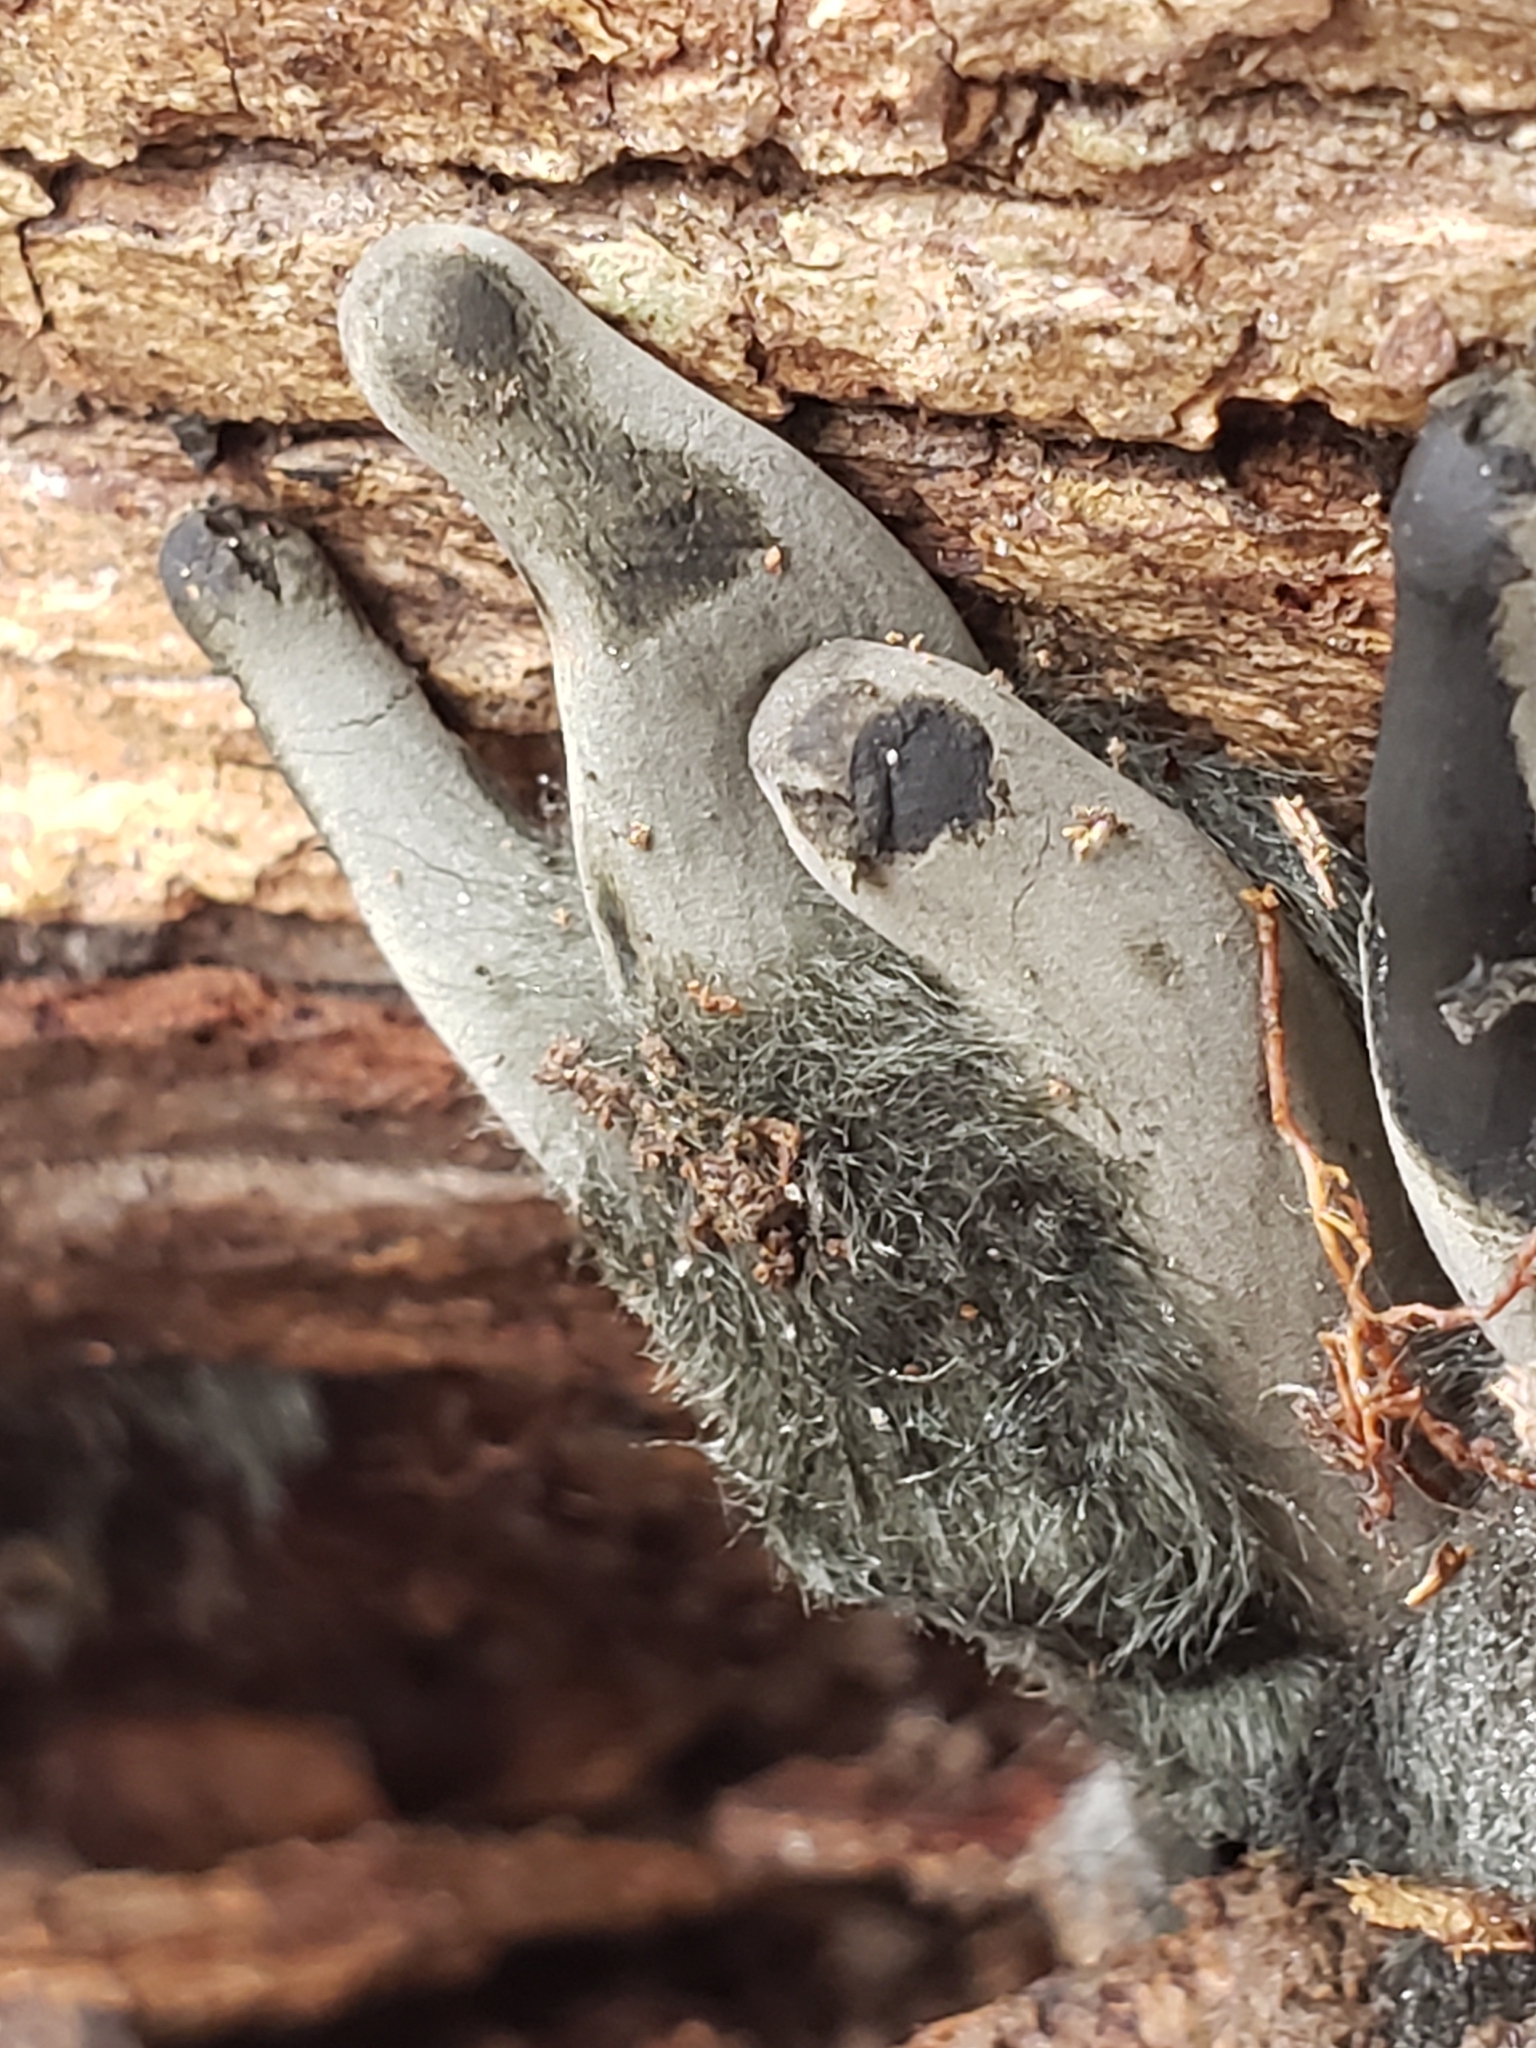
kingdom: Fungi
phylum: Ascomycota
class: Sordariomycetes
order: Xylariales
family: Xylariaceae
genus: Xylaria
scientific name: Xylaria polymorpha
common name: Dead man's fingers
